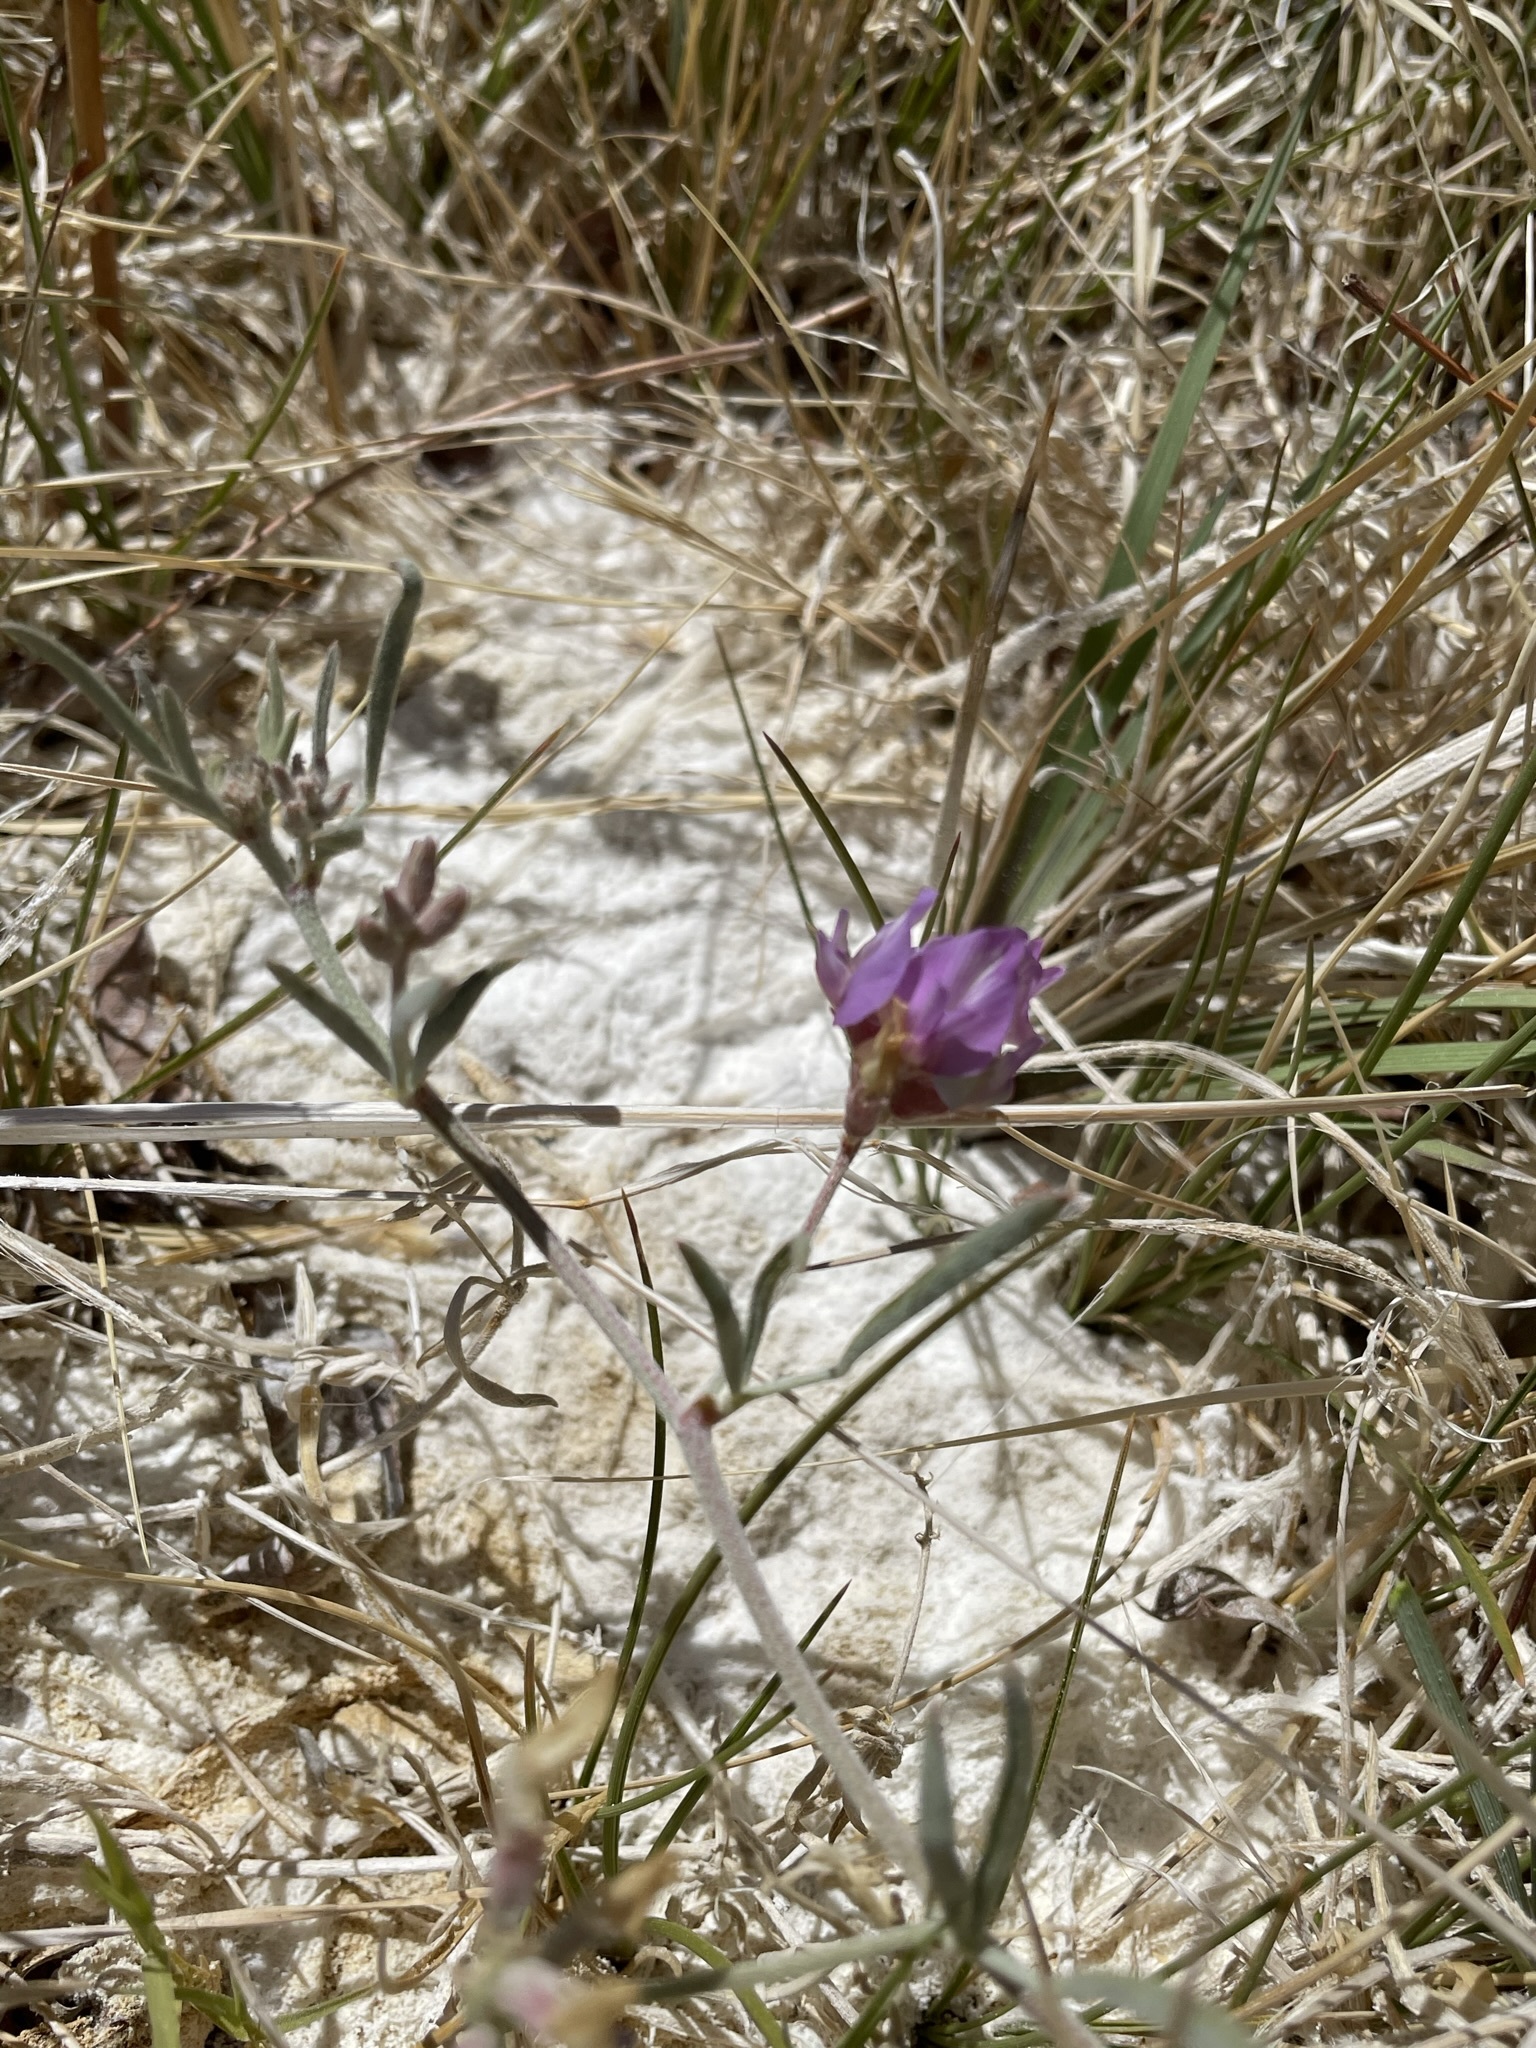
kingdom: Plantae
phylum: Tracheophyta
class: Magnoliopsida
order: Fabales
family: Fabaceae
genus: Astragalus
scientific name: Astragalus lentiginosus
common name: Freckled milkvetch
